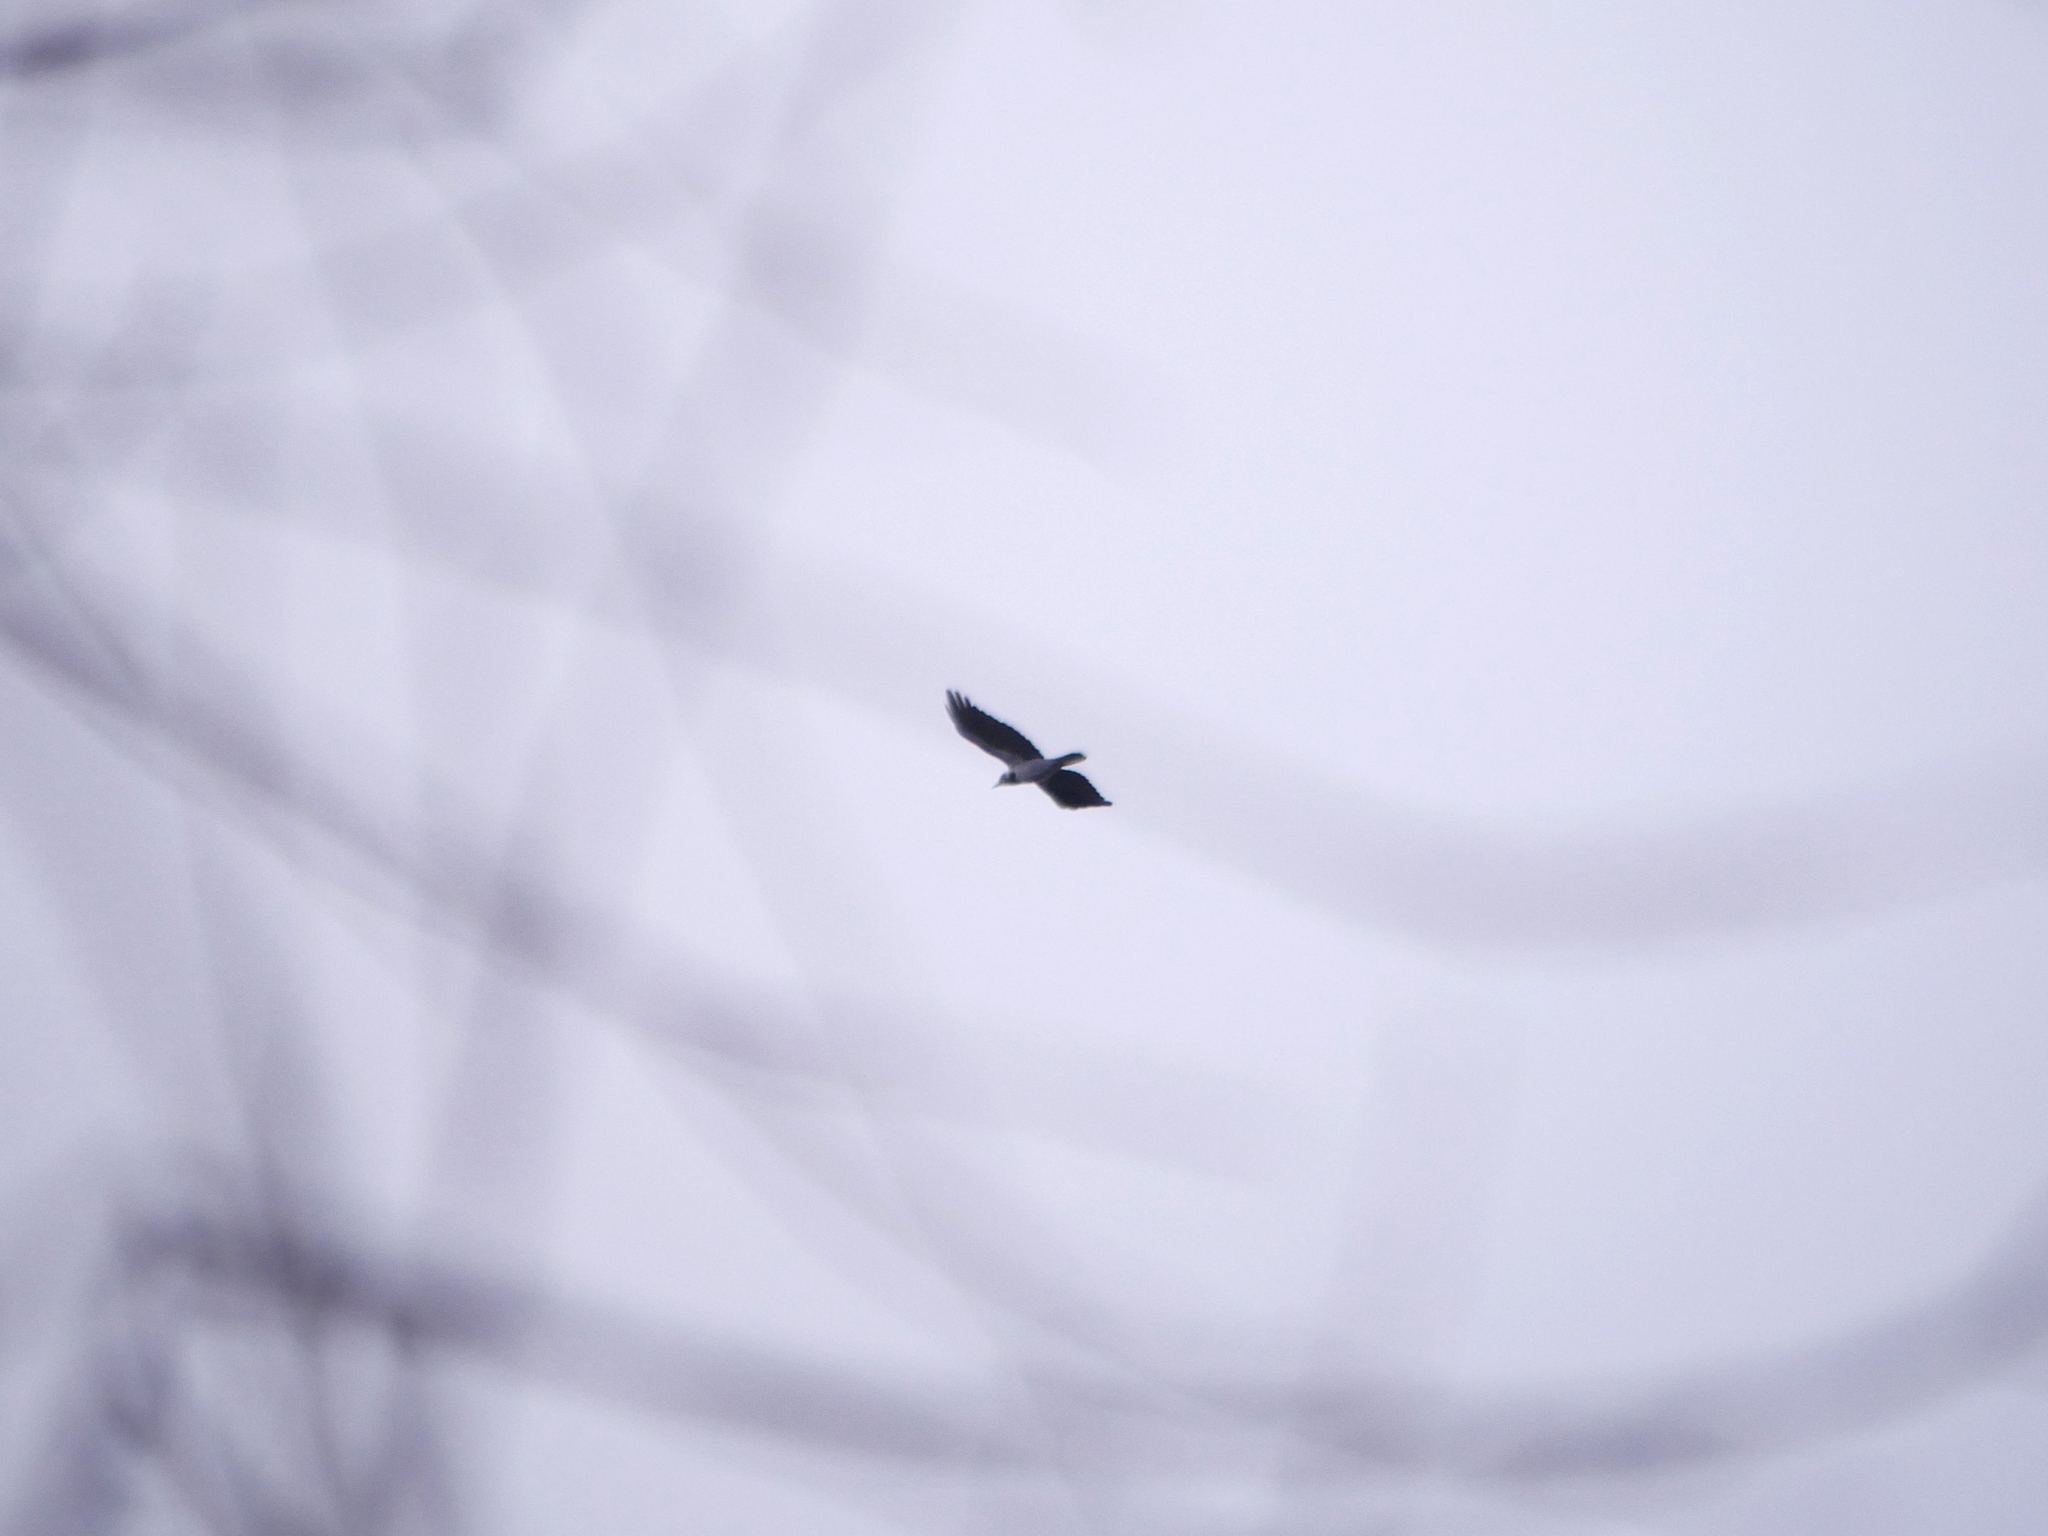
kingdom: Animalia
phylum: Chordata
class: Aves
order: Passeriformes
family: Corvidae
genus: Corvus
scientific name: Corvus cornix
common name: Hooded crow
